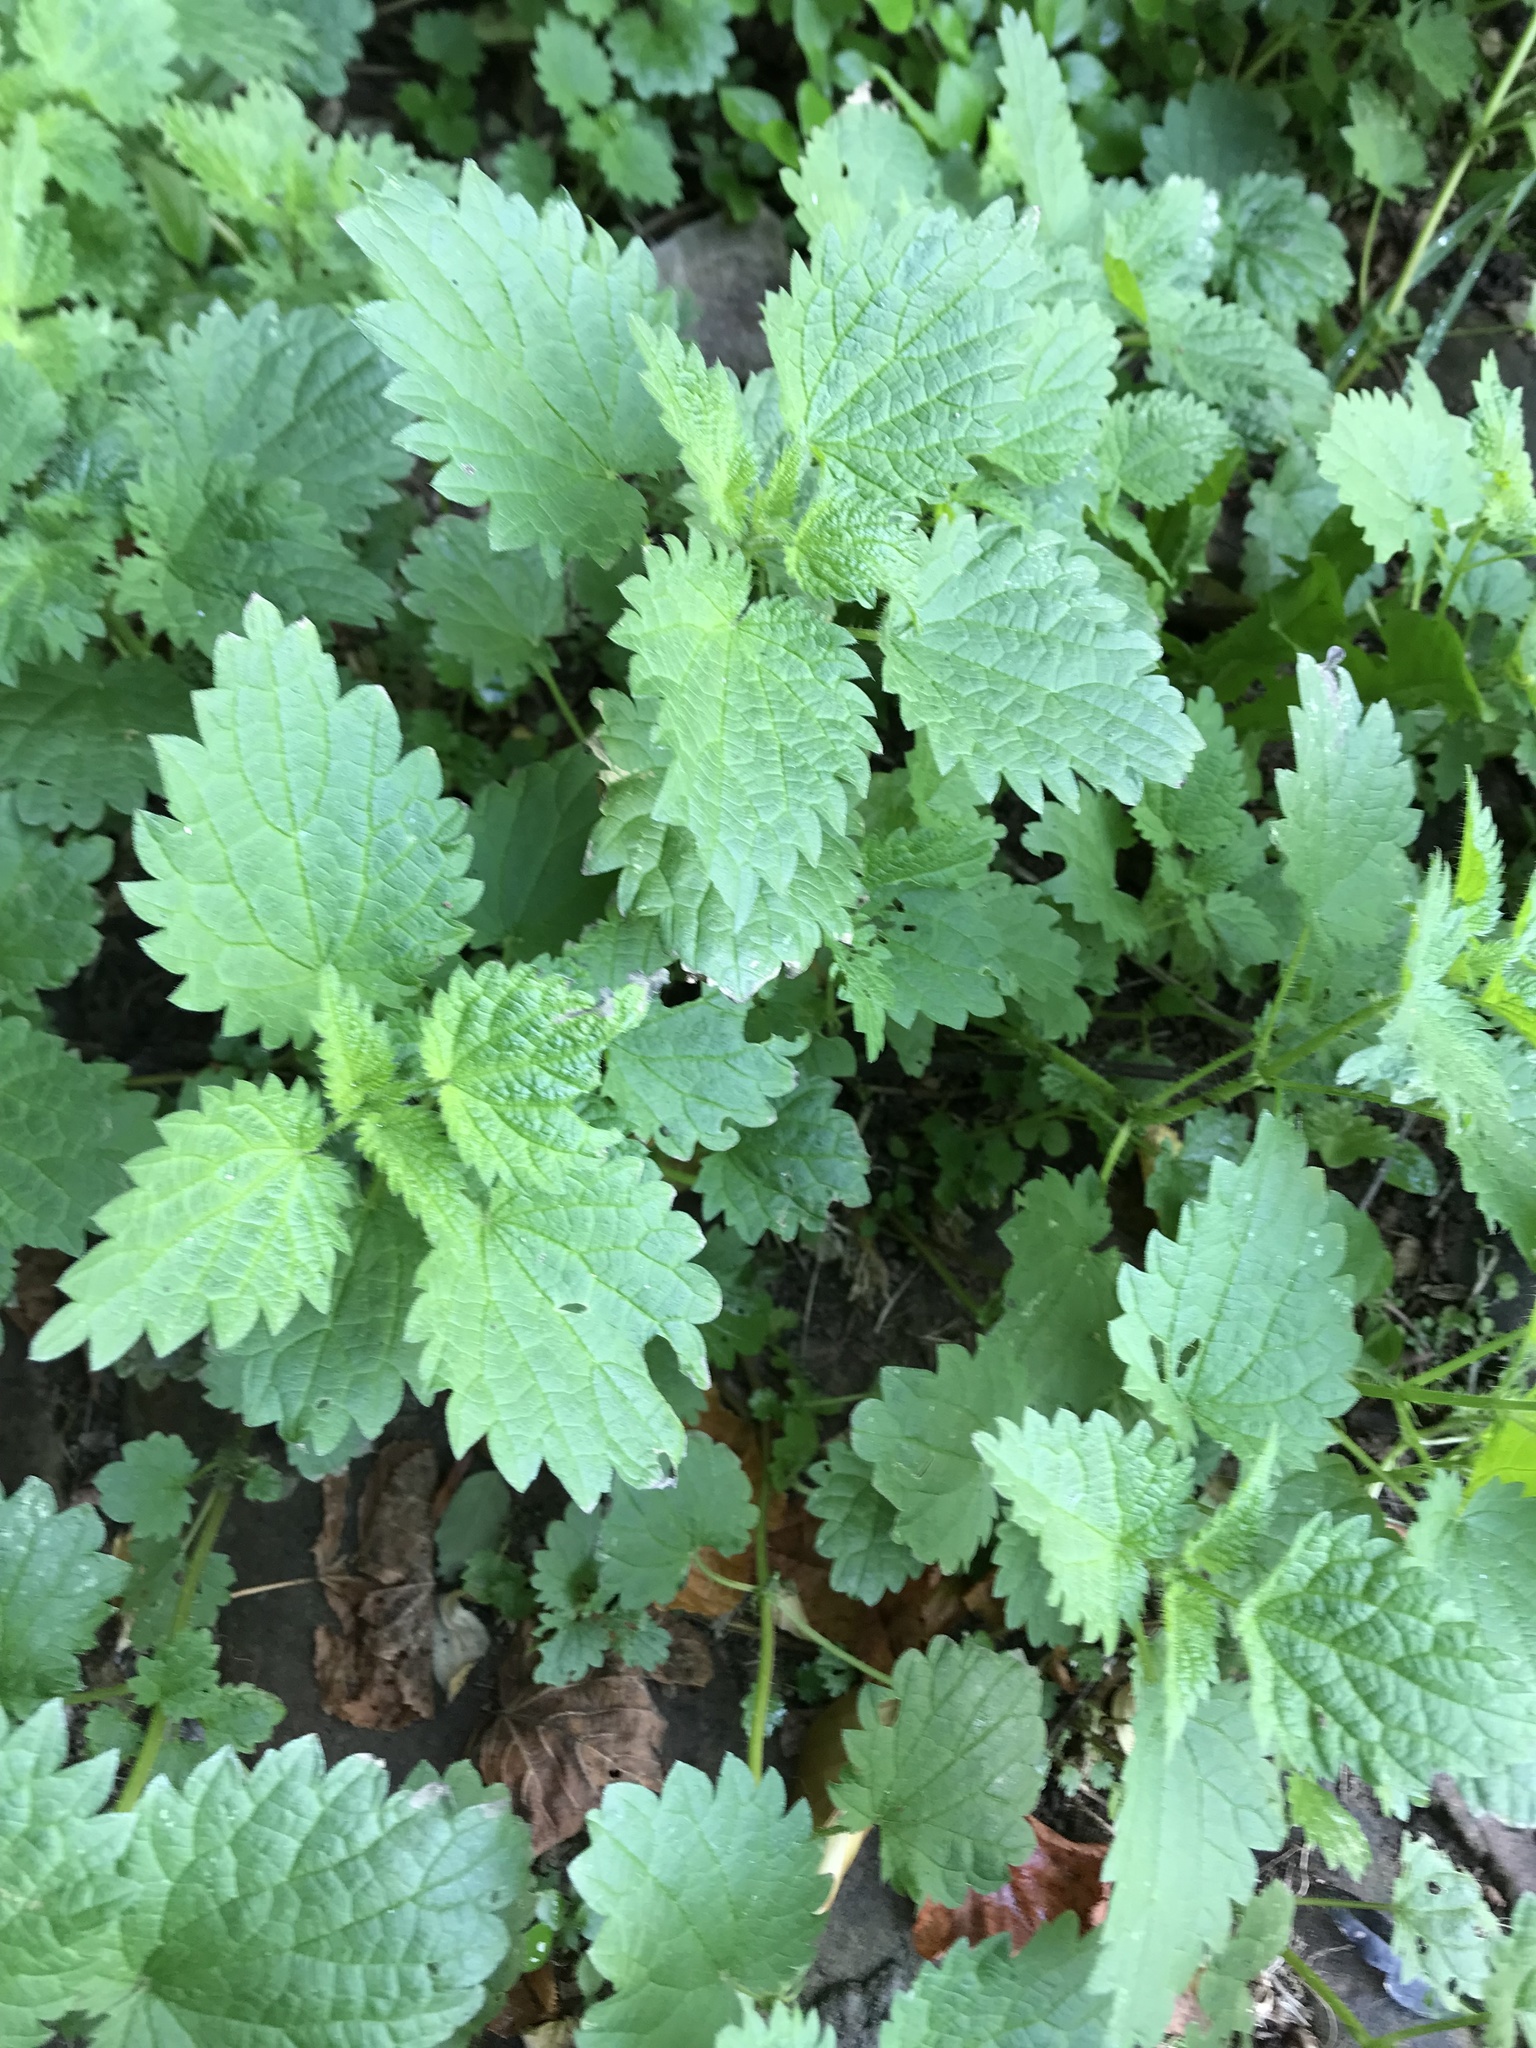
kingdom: Plantae
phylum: Tracheophyta
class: Magnoliopsida
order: Rosales
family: Urticaceae
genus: Urtica
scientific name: Urtica dioica
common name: Common nettle
